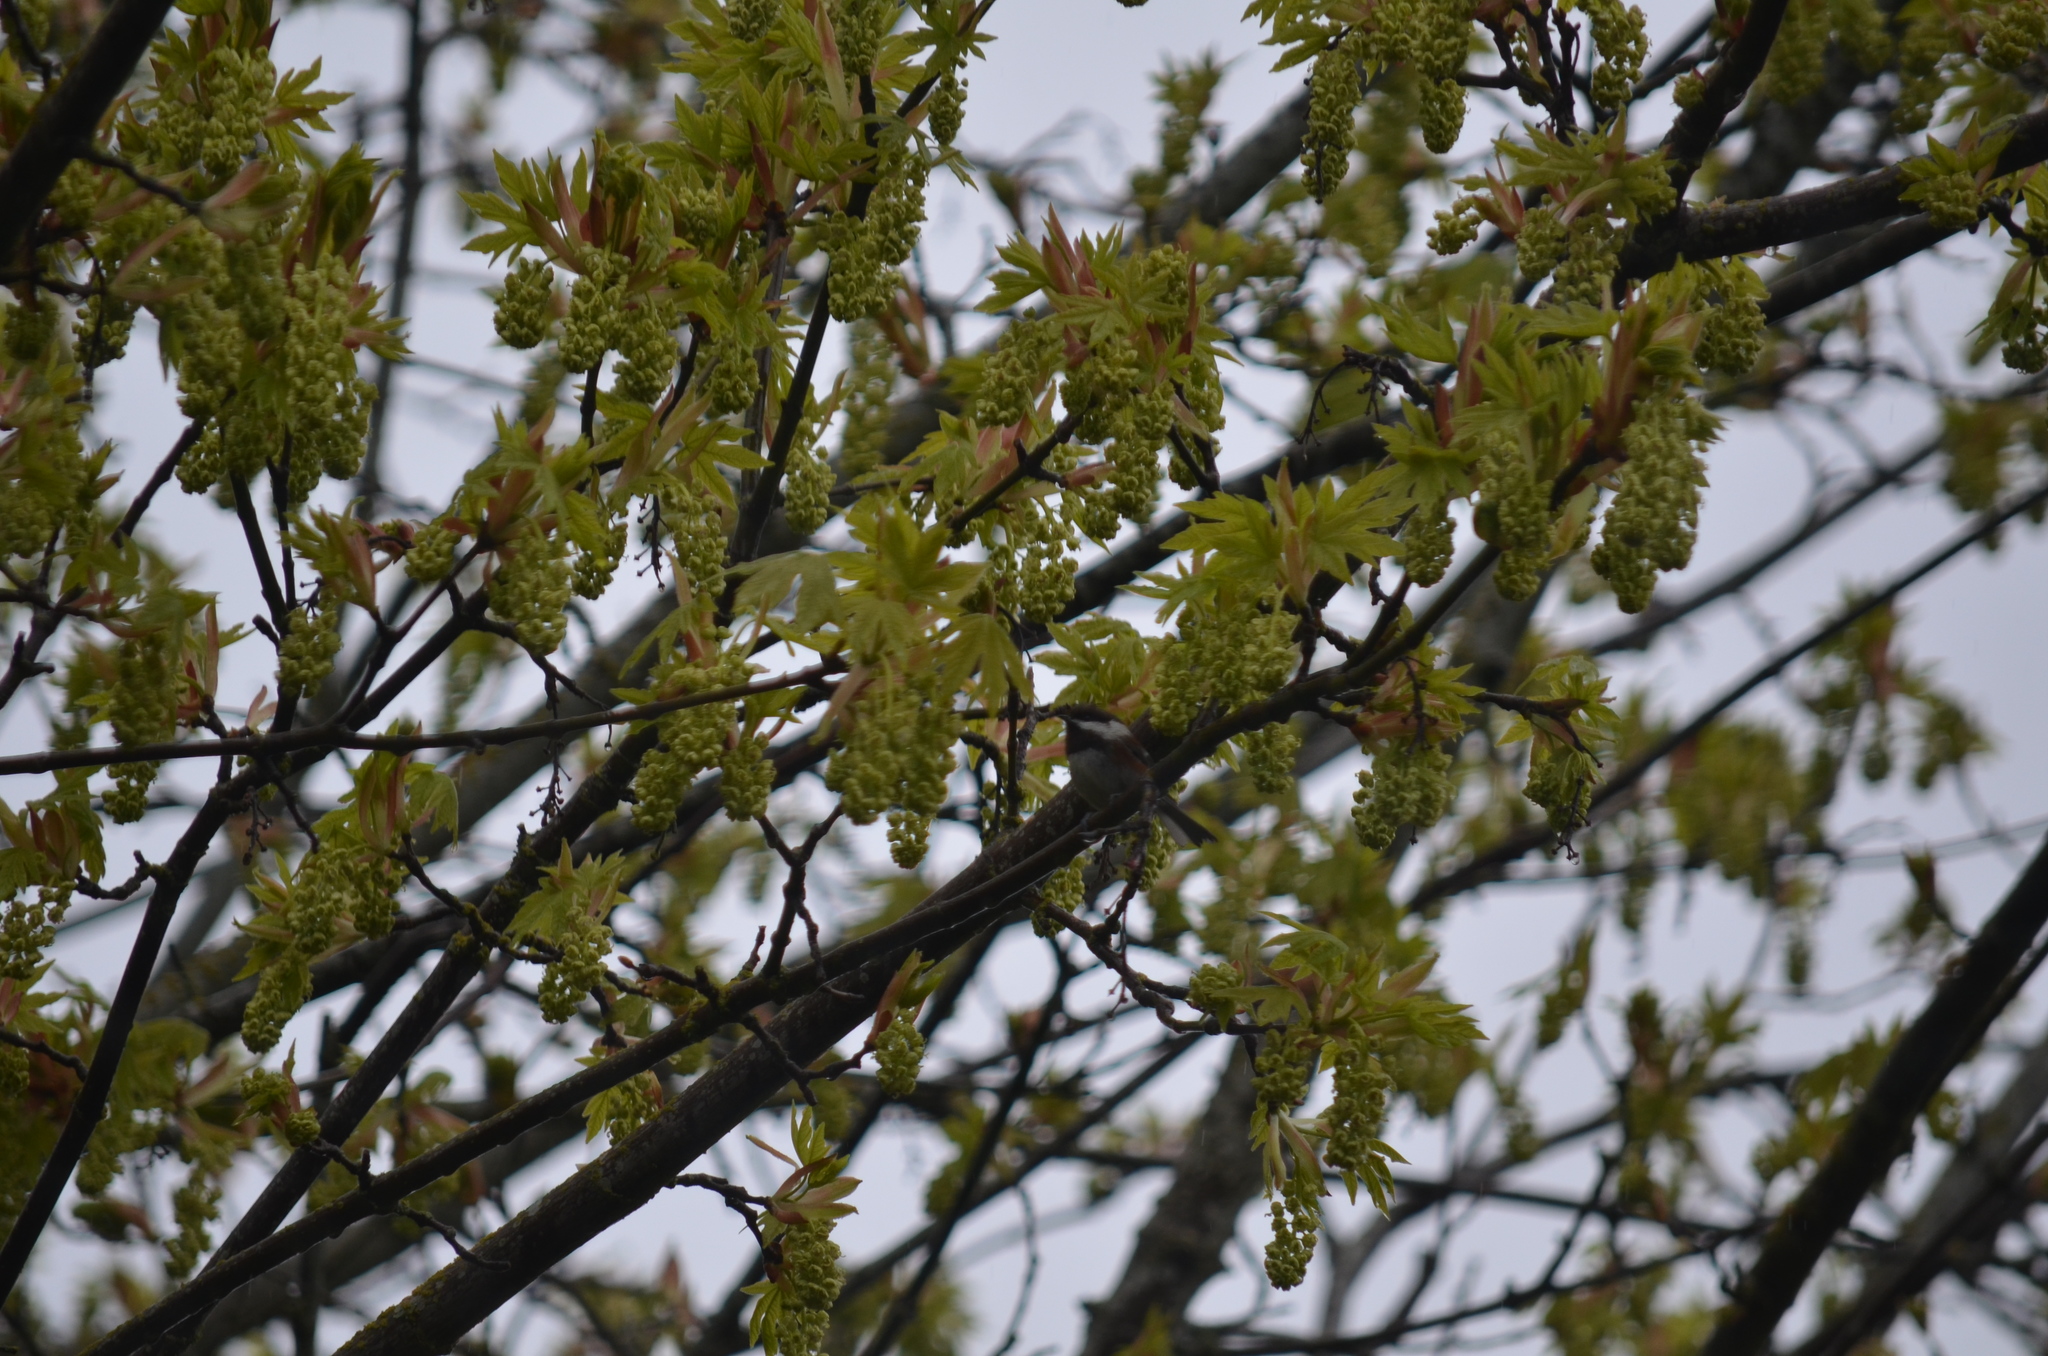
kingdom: Animalia
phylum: Chordata
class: Aves
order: Passeriformes
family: Paridae
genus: Poecile
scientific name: Poecile rufescens
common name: Chestnut-backed chickadee
